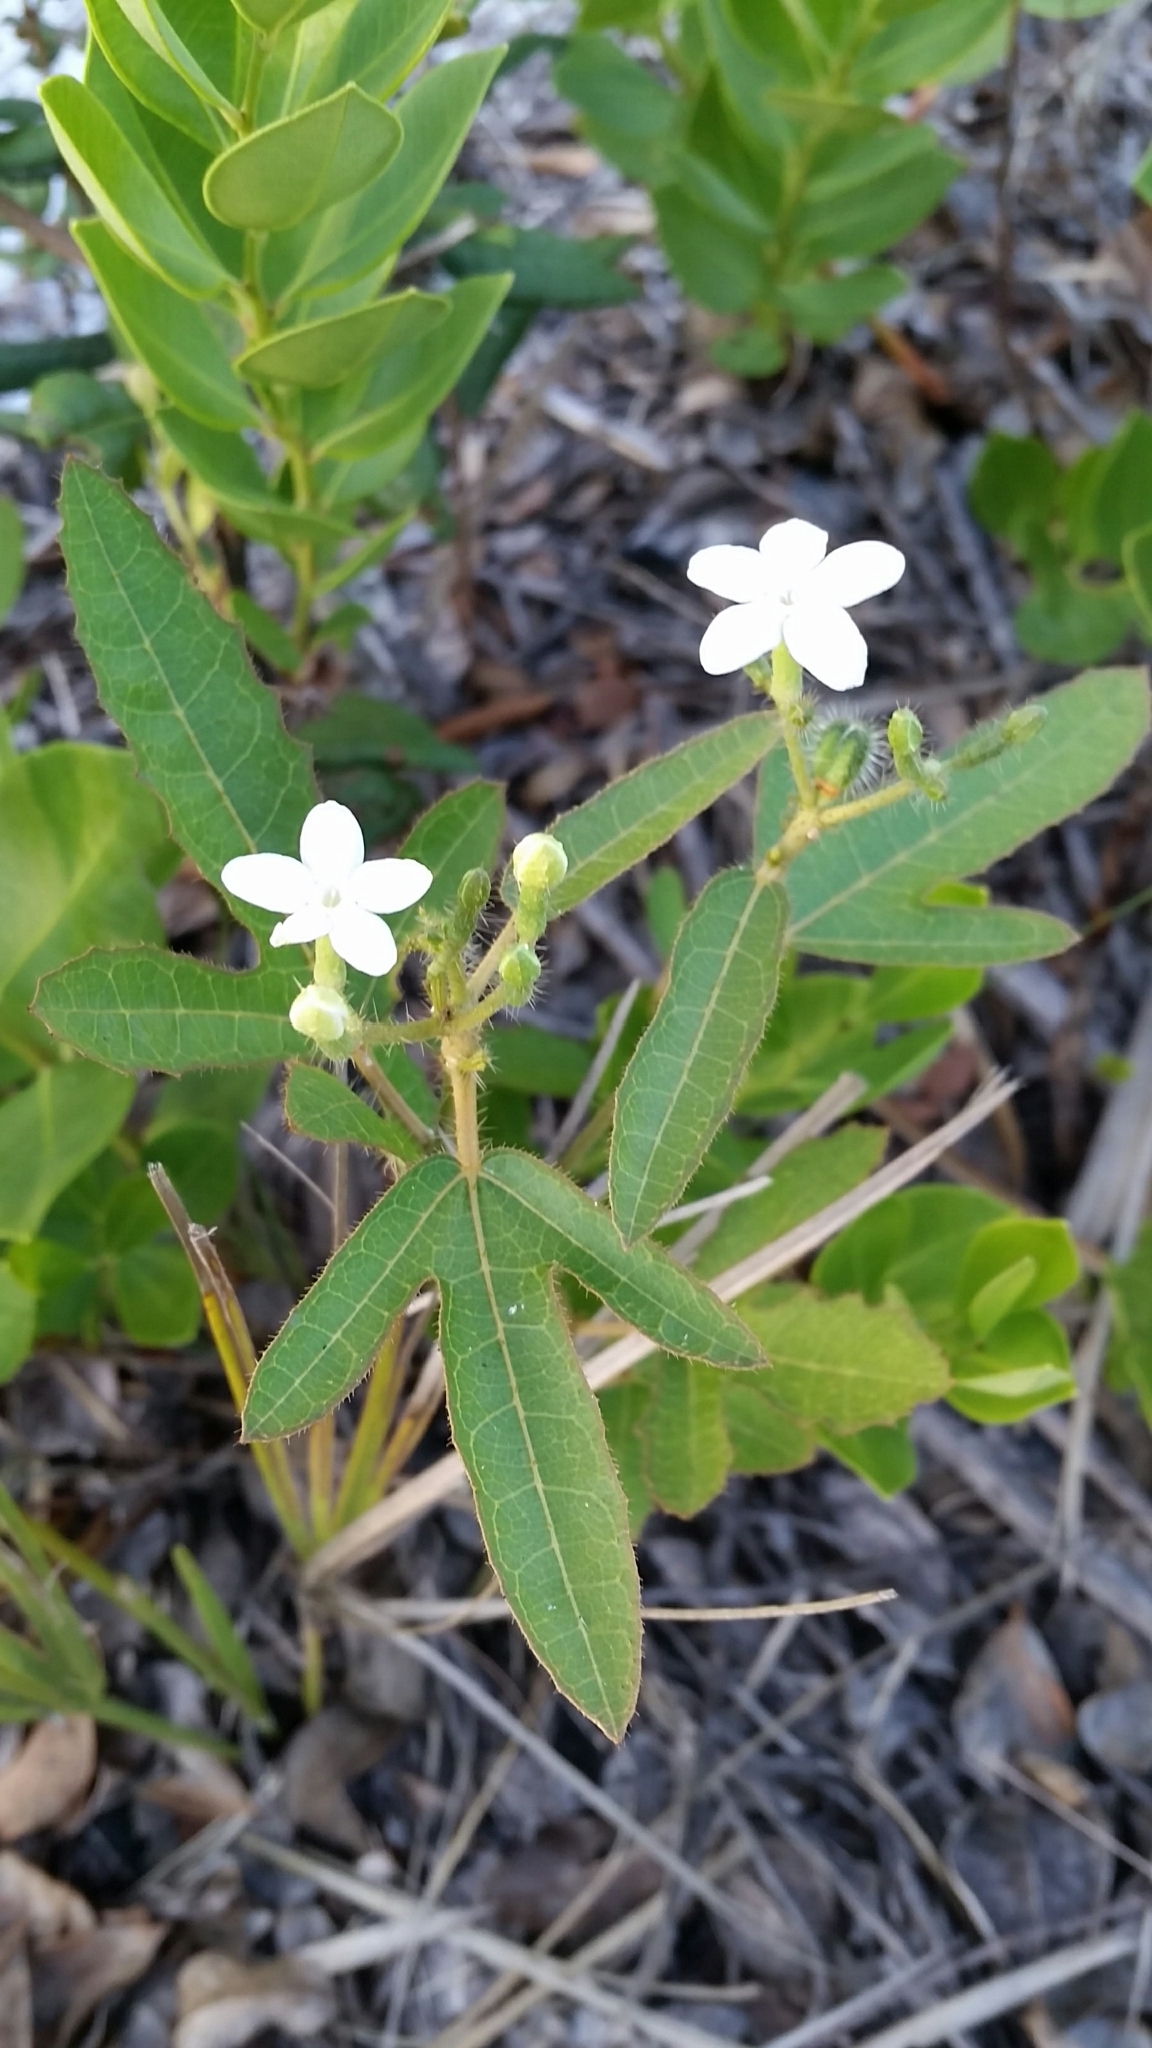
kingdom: Plantae
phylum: Tracheophyta
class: Magnoliopsida
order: Malpighiales
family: Euphorbiaceae
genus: Cnidoscolus
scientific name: Cnidoscolus stimulosus
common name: Bull-nettle
